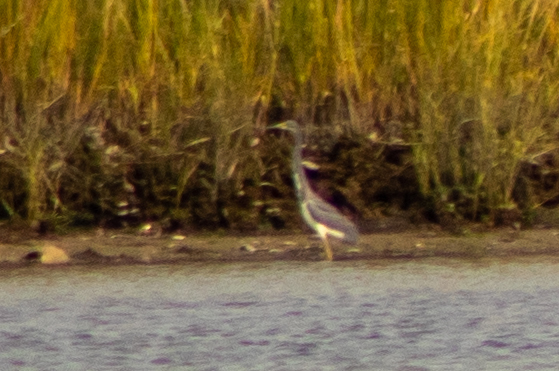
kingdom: Animalia
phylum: Chordata
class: Aves
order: Pelecaniformes
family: Ardeidae
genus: Egretta
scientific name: Egretta tricolor
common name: Tricolored heron
